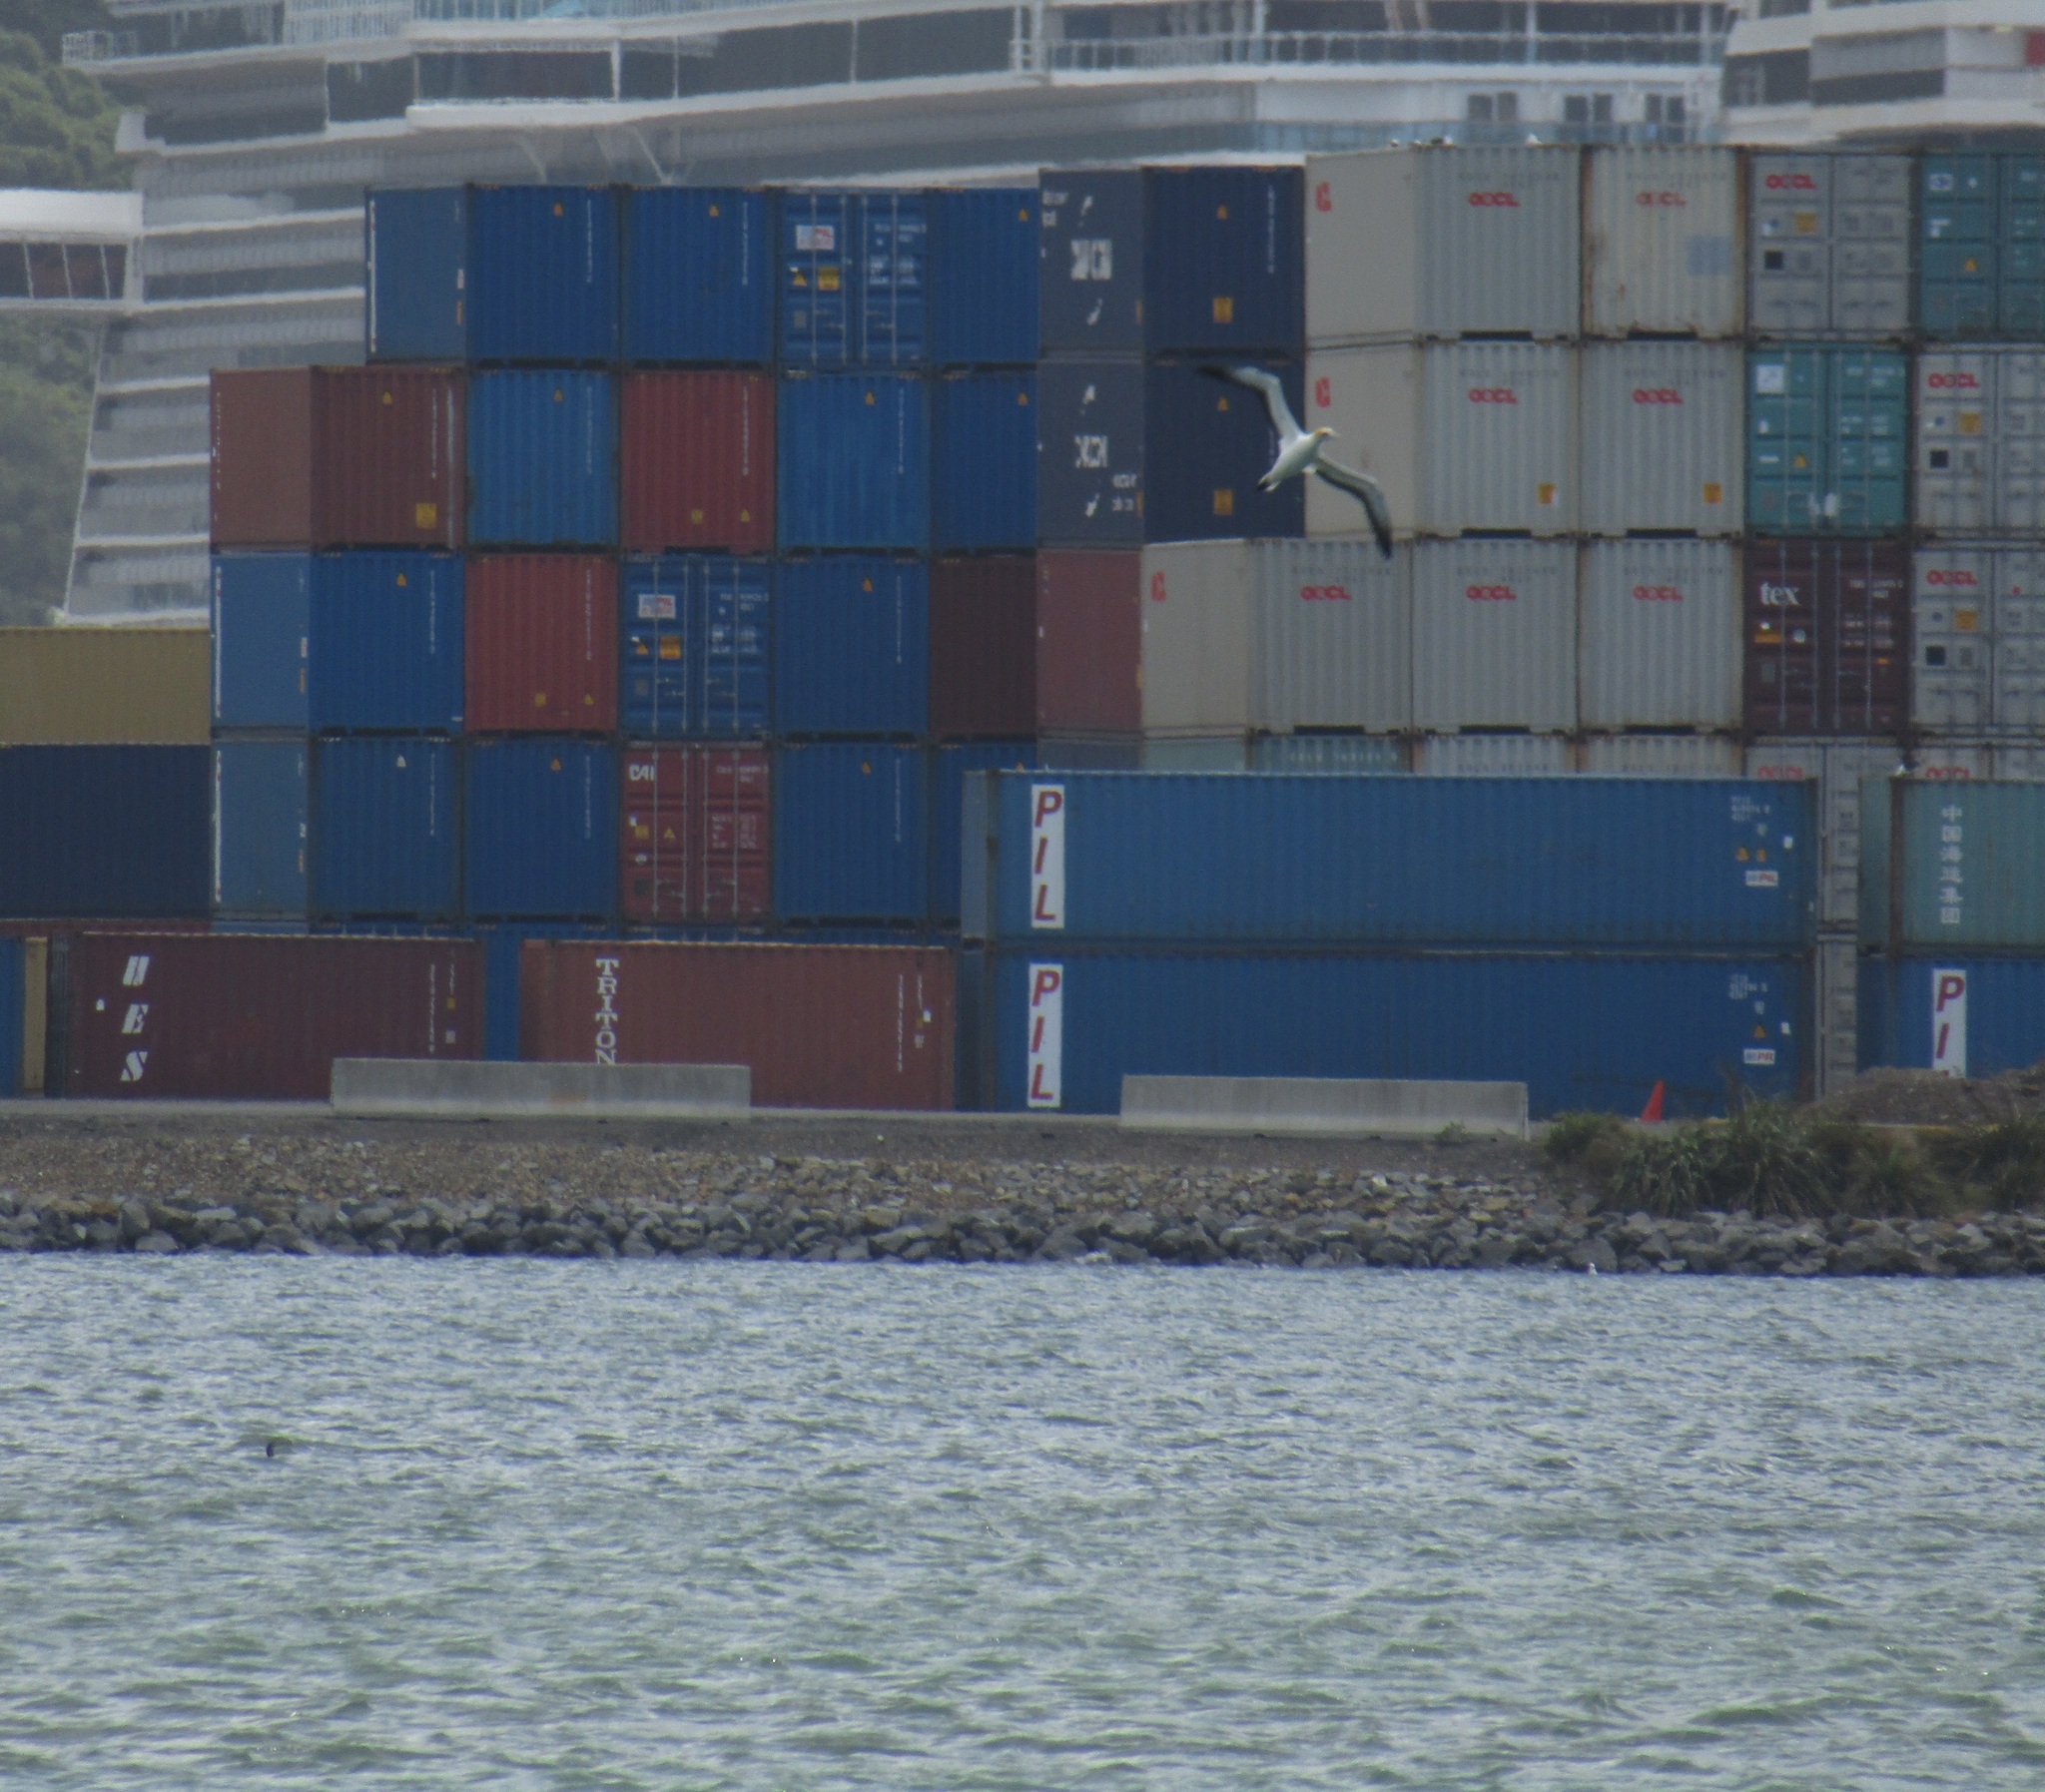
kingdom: Animalia
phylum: Chordata
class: Aves
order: Suliformes
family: Sulidae
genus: Morus
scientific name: Morus serrator
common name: Australasian gannet
